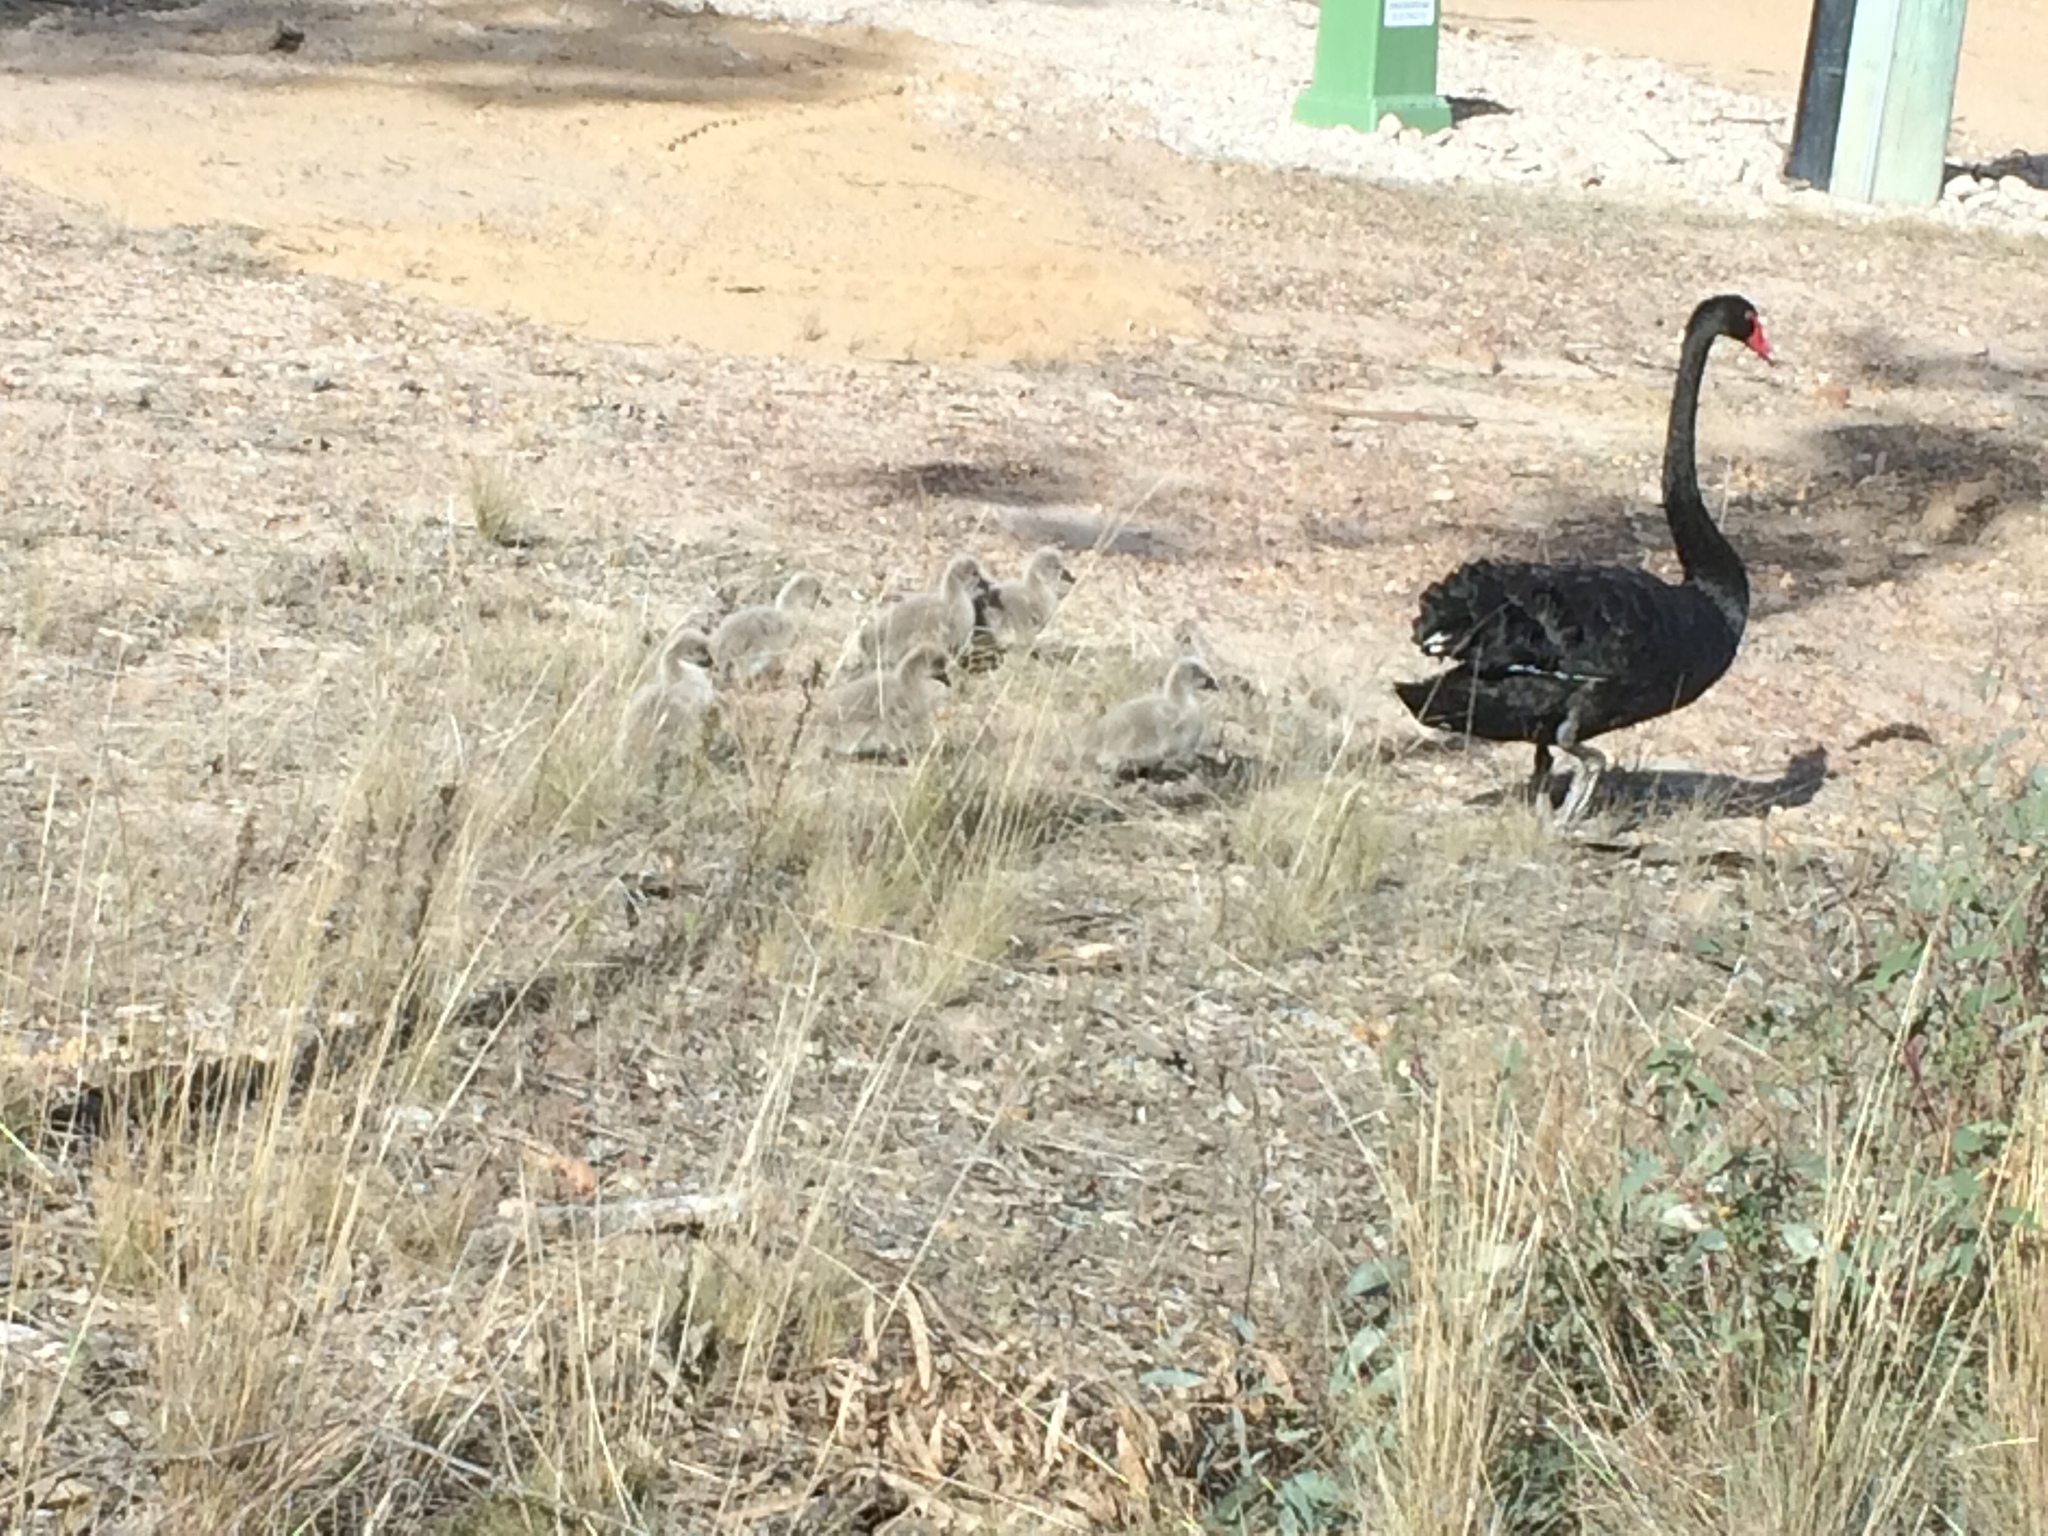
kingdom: Animalia
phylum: Chordata
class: Aves
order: Anseriformes
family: Anatidae
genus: Cygnus
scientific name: Cygnus atratus
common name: Black swan
